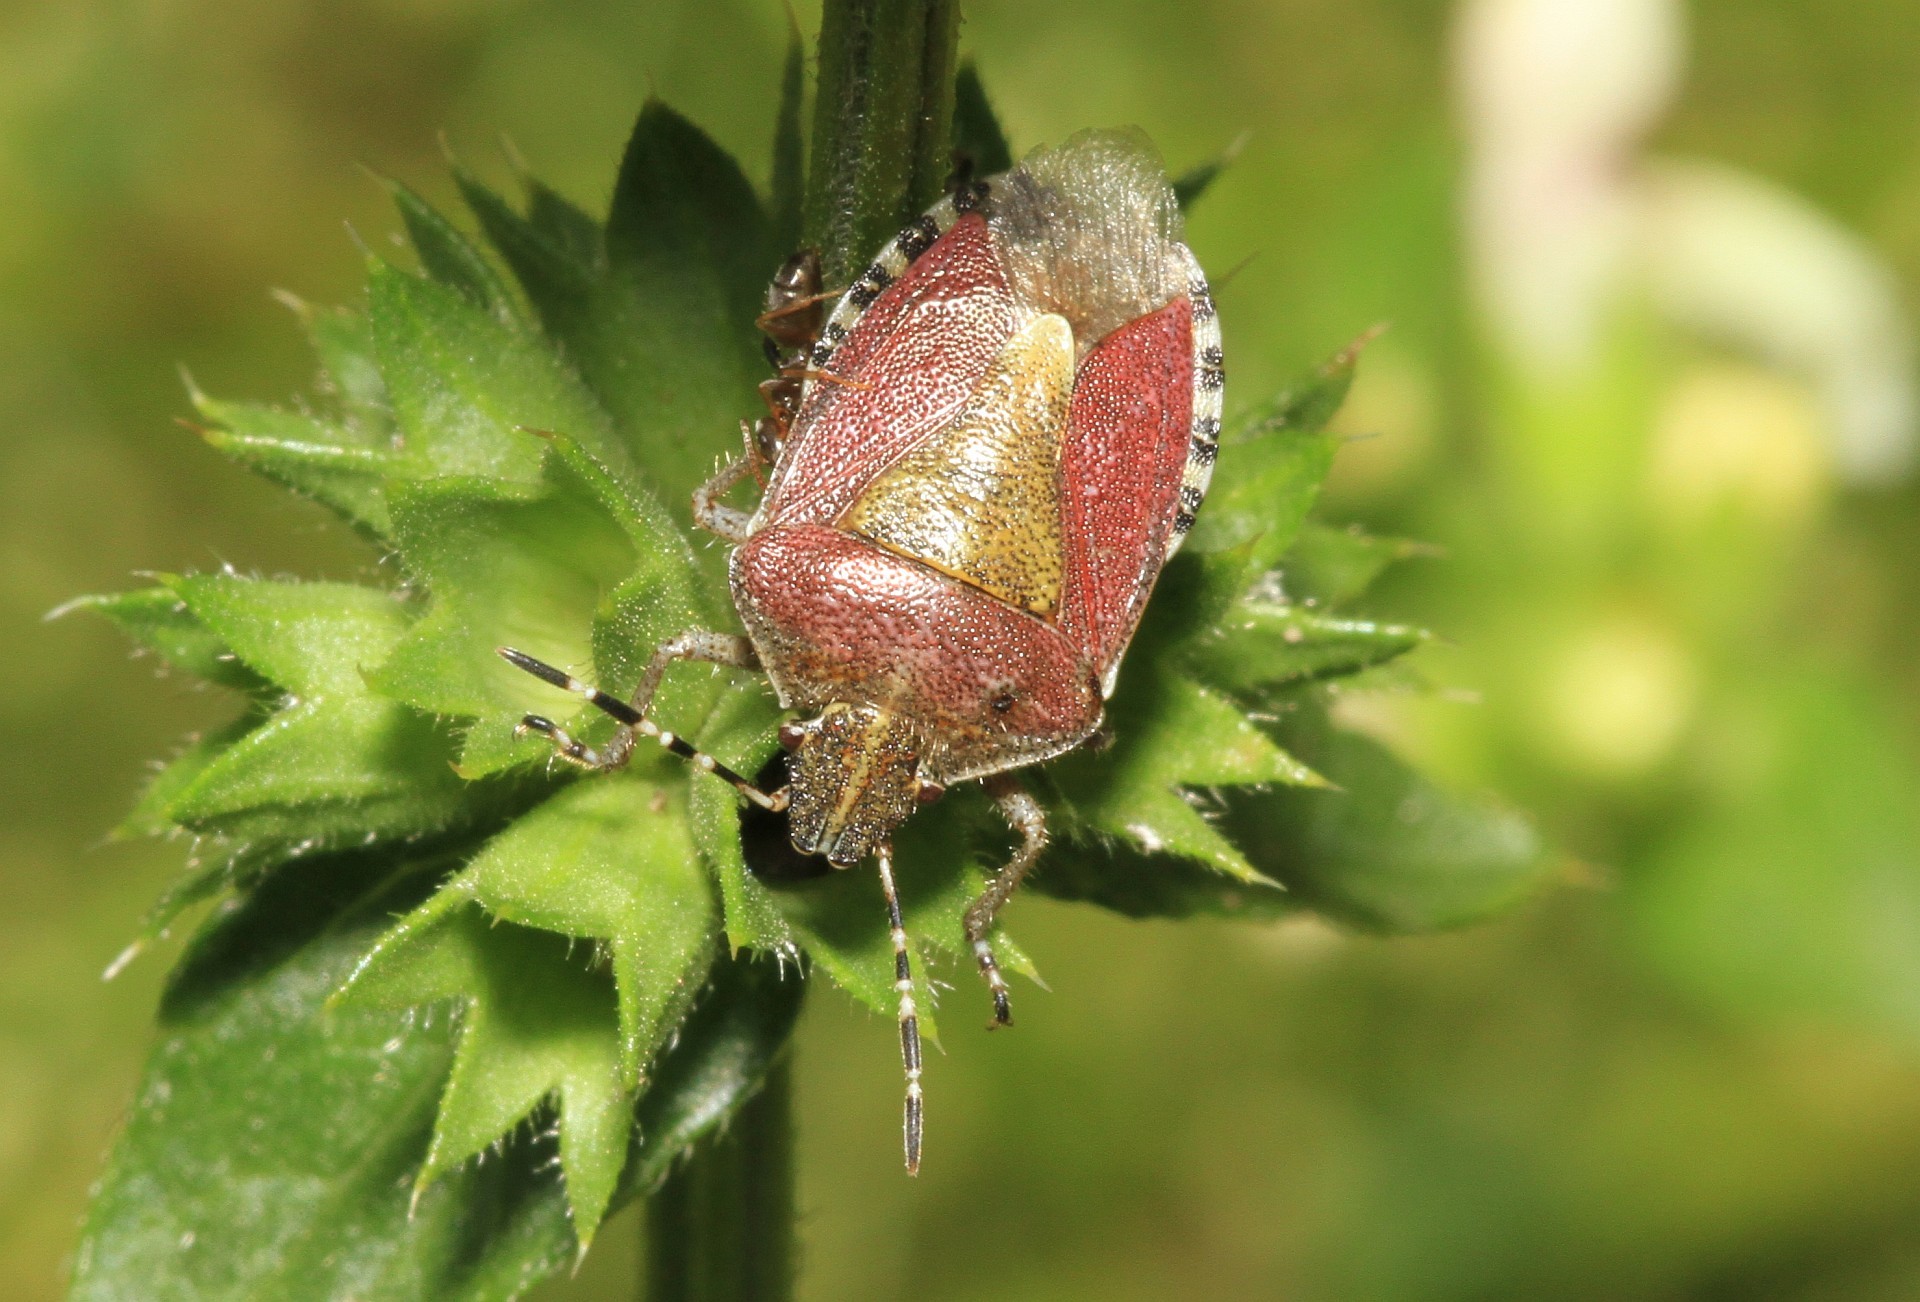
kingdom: Animalia
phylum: Arthropoda
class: Insecta
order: Hemiptera
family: Pentatomidae
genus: Dolycoris
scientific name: Dolycoris baccarum
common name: Sloe bug
